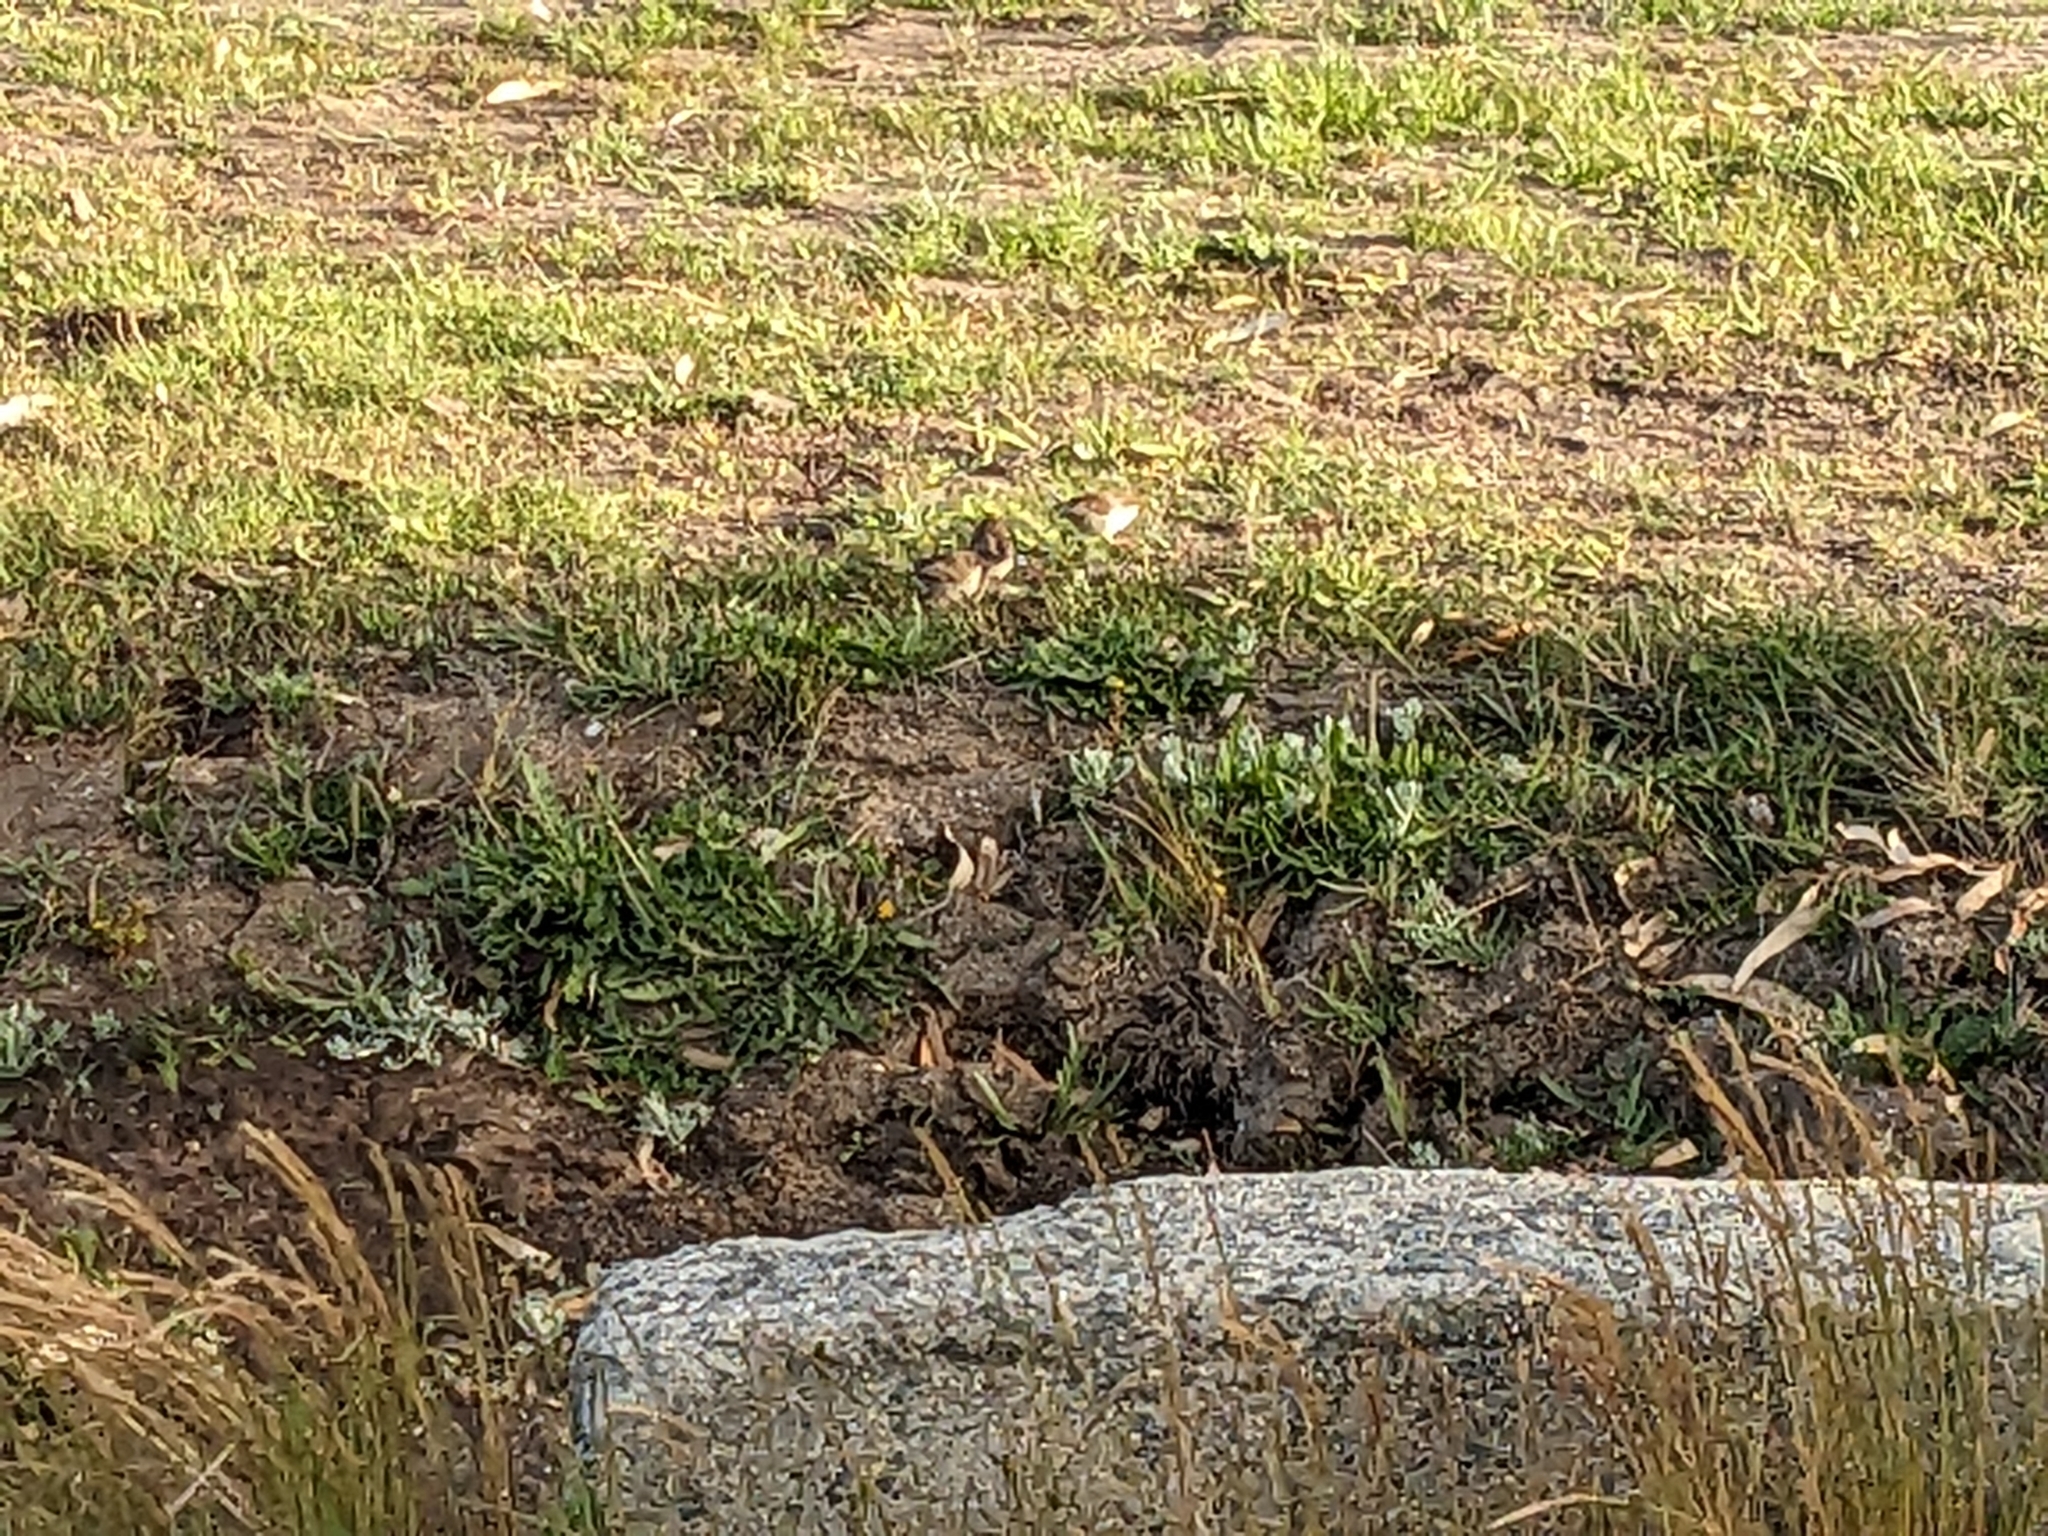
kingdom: Animalia
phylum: Chordata
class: Aves
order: Passeriformes
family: Maluridae
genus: Malurus
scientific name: Malurus cyaneus
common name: Superb fairywren
